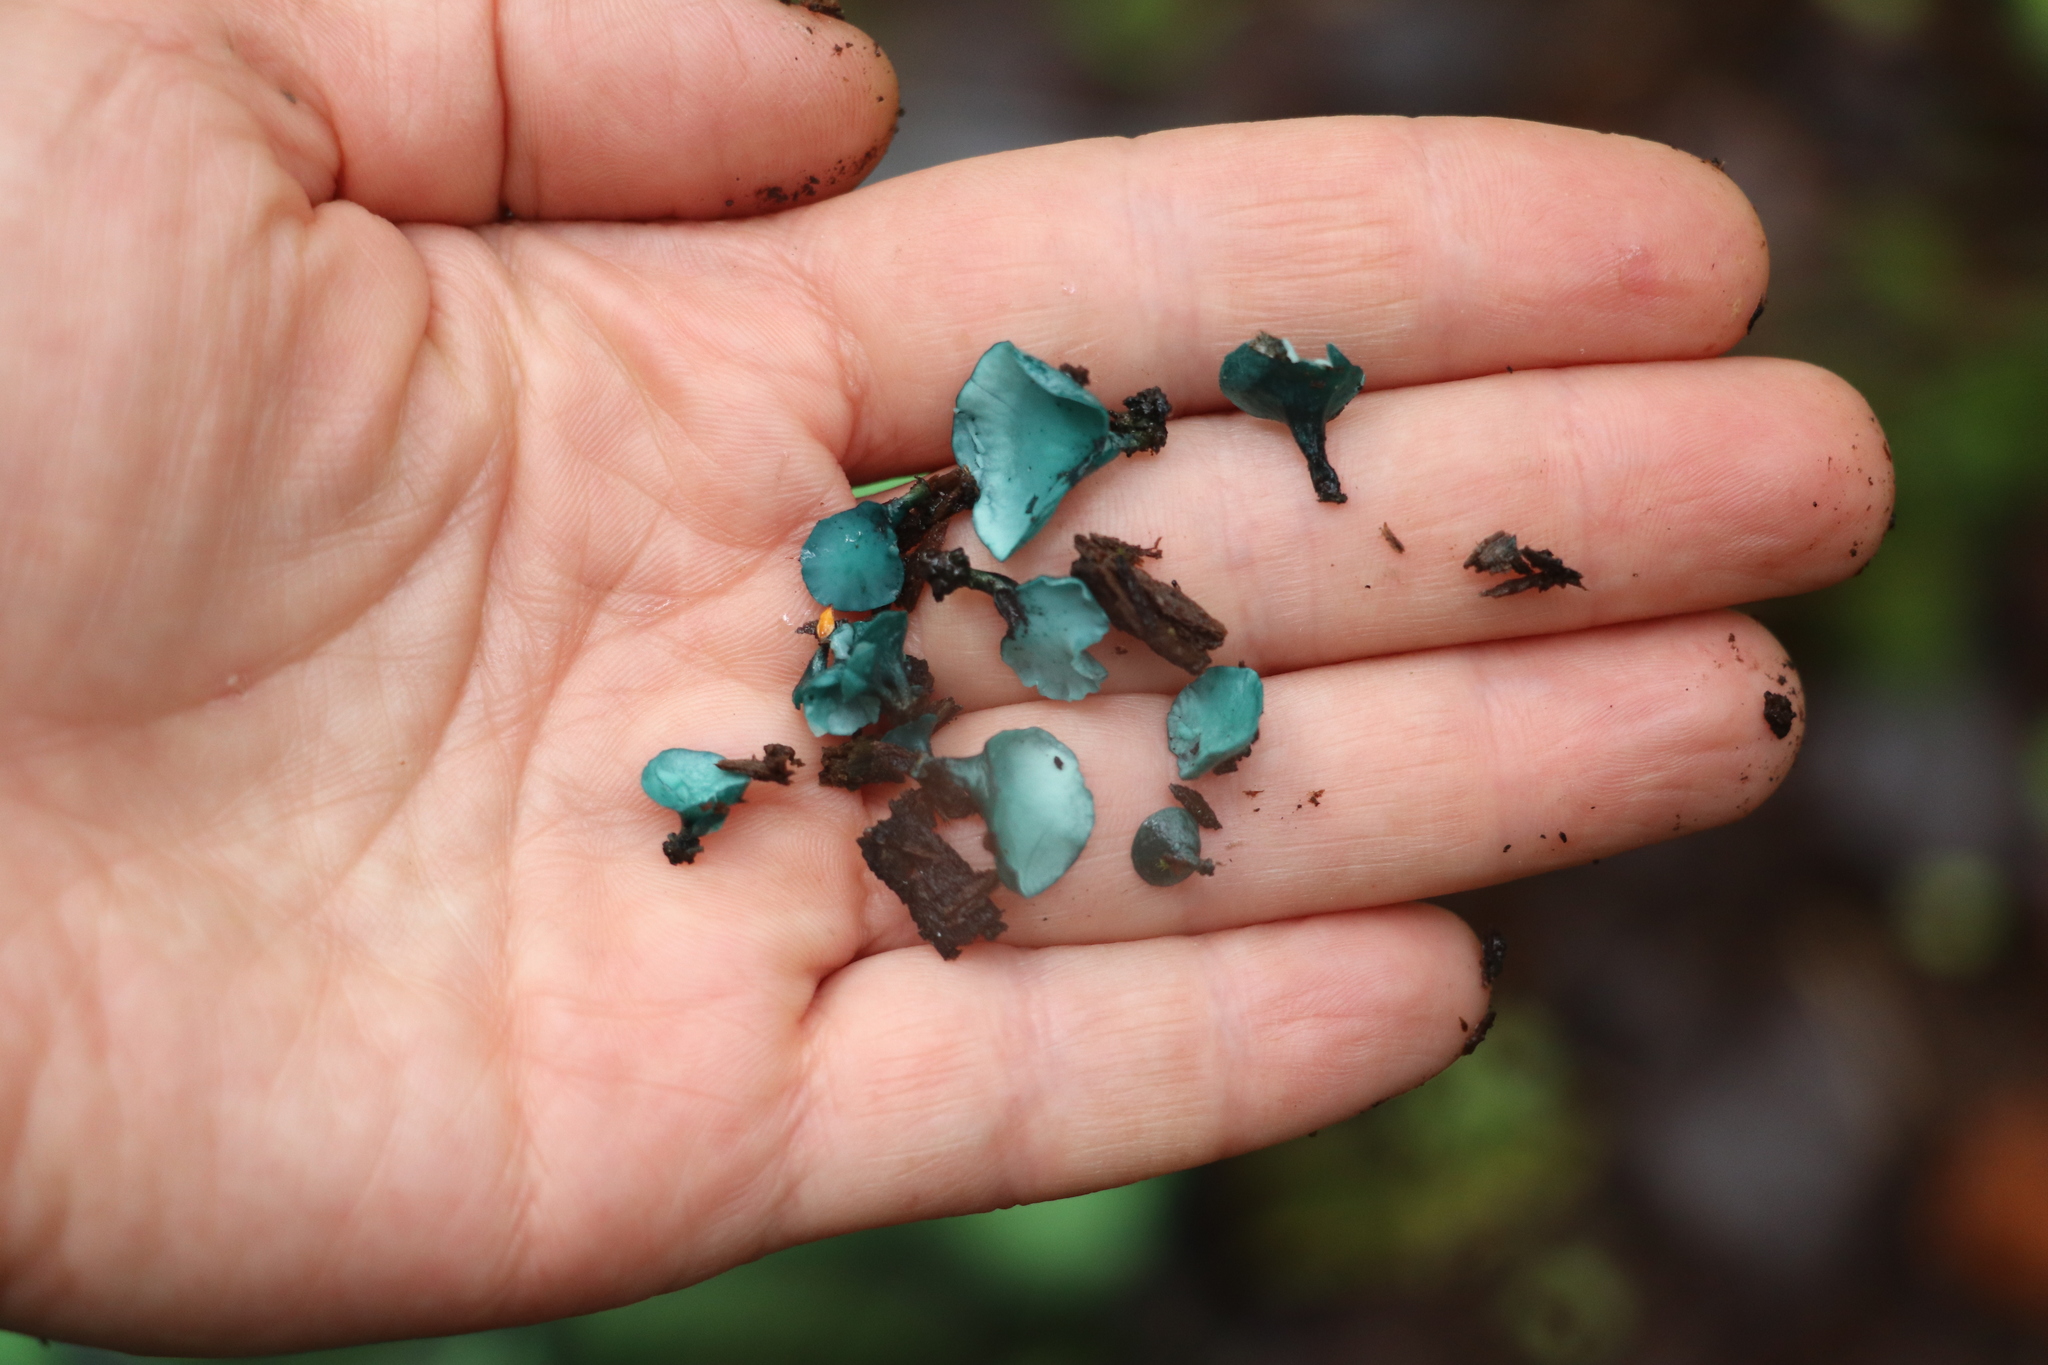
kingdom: Fungi
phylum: Ascomycota
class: Leotiomycetes
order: Helotiales
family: Chlorociboriaceae
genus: Chlorociboria
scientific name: Chlorociboria aeruginascens
